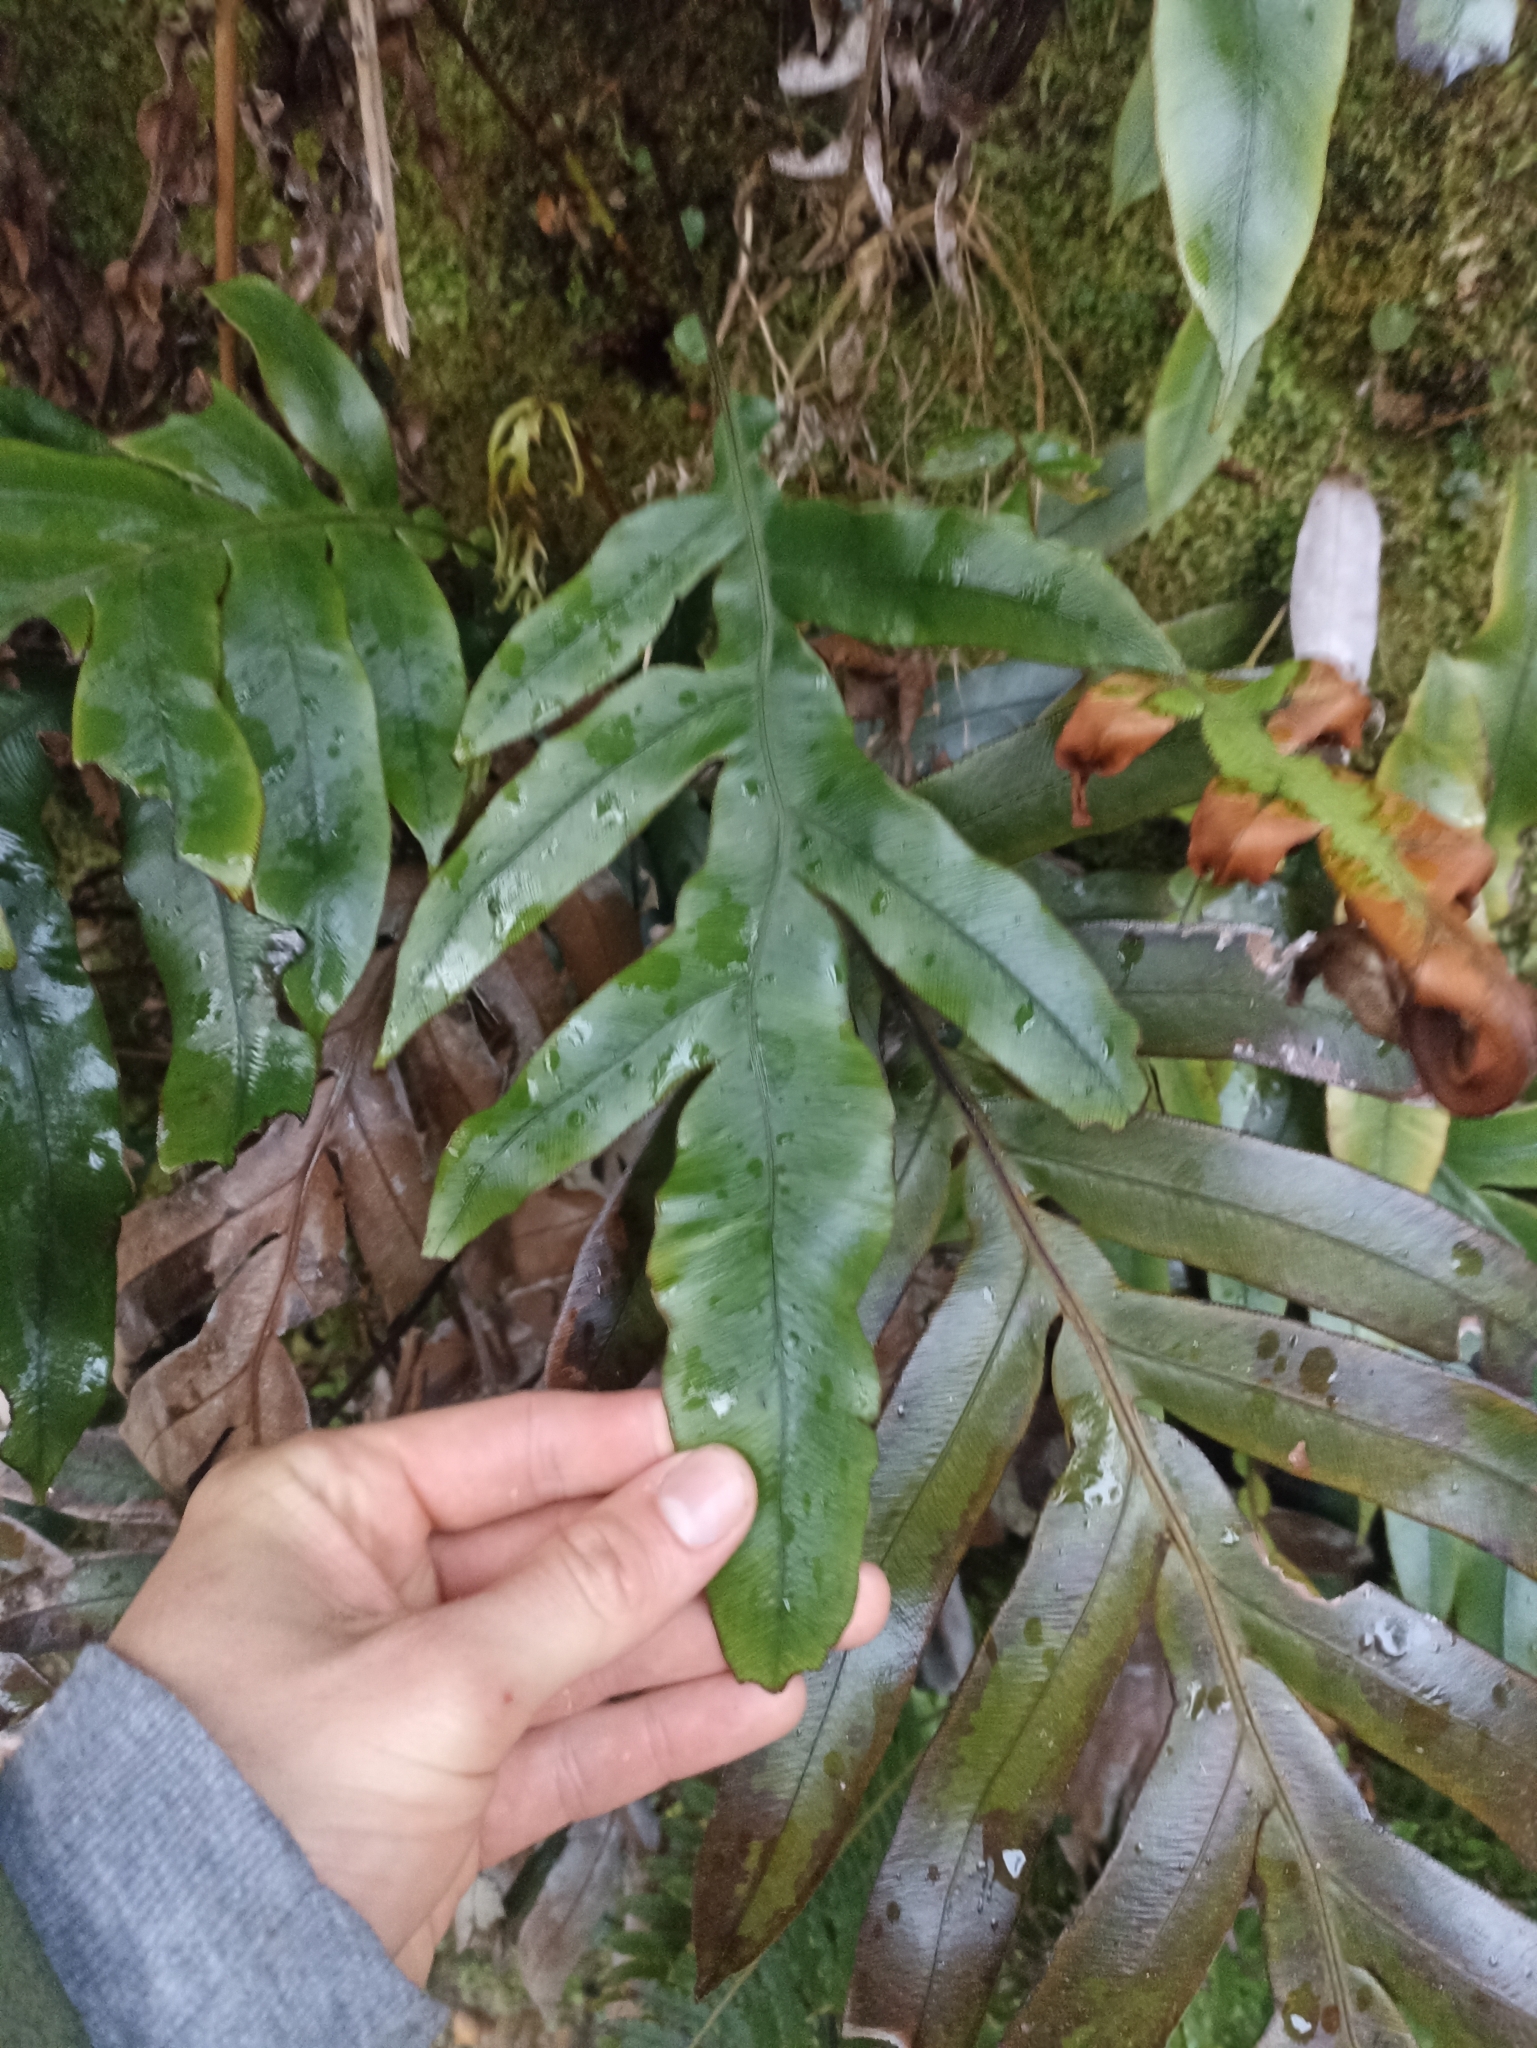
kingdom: Plantae
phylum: Tracheophyta
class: Polypodiopsida
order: Polypodiales
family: Blechnaceae
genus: Austroblechnum
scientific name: Austroblechnum colensoi
